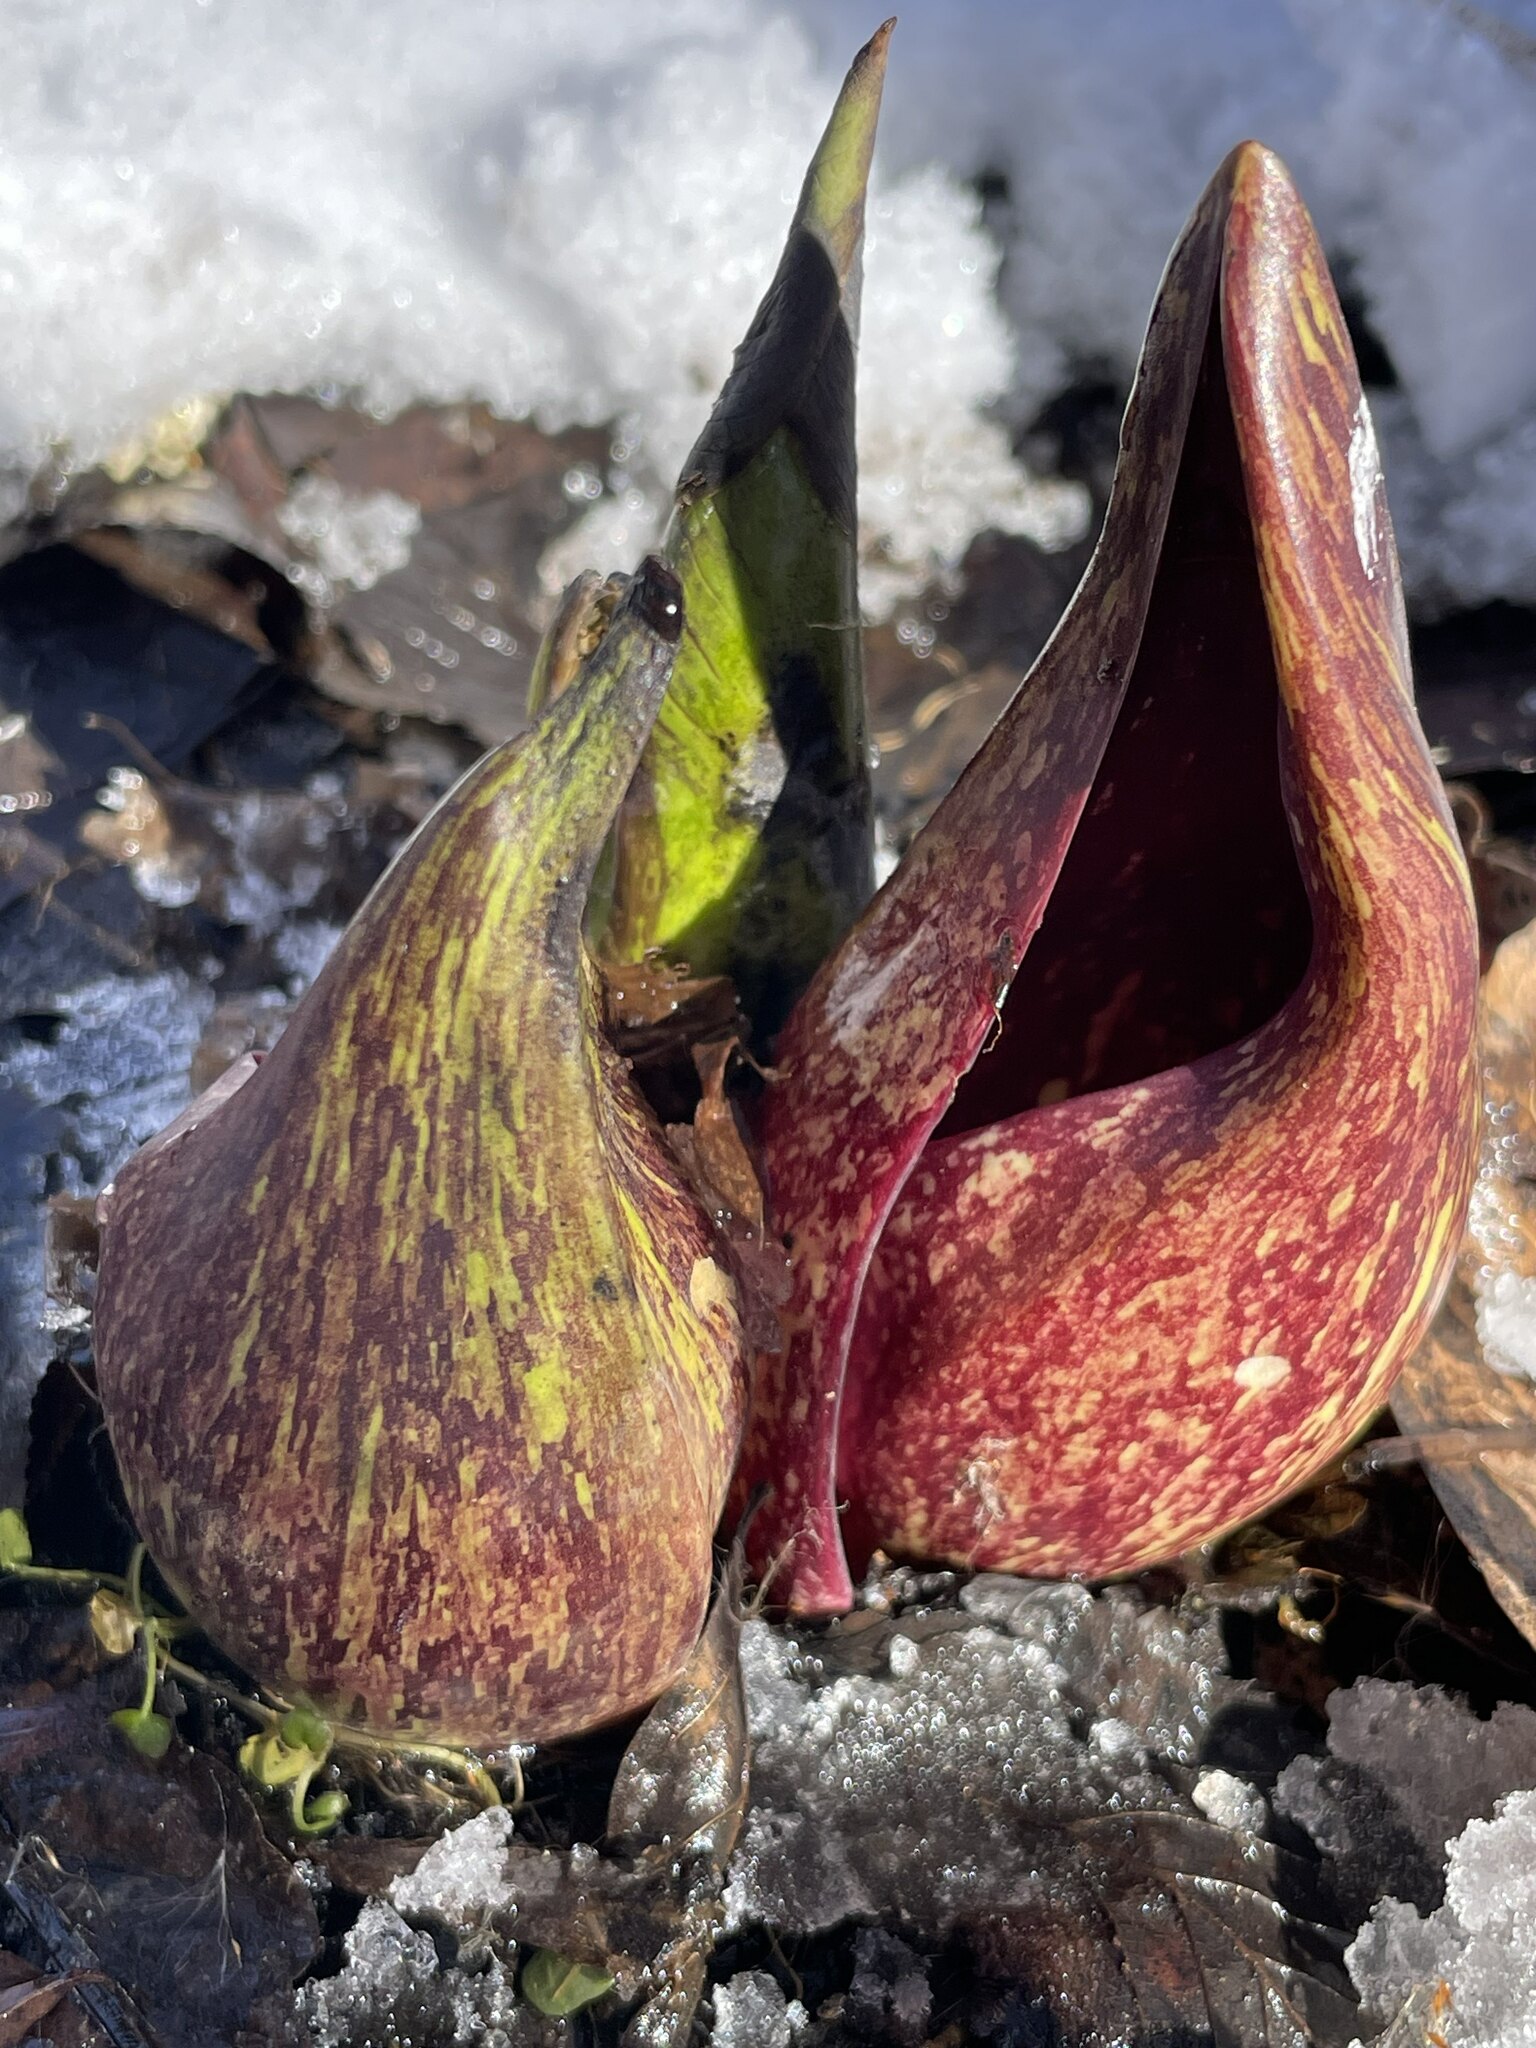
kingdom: Plantae
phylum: Tracheophyta
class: Liliopsida
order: Alismatales
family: Araceae
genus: Symplocarpus
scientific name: Symplocarpus foetidus
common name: Eastern skunk cabbage
